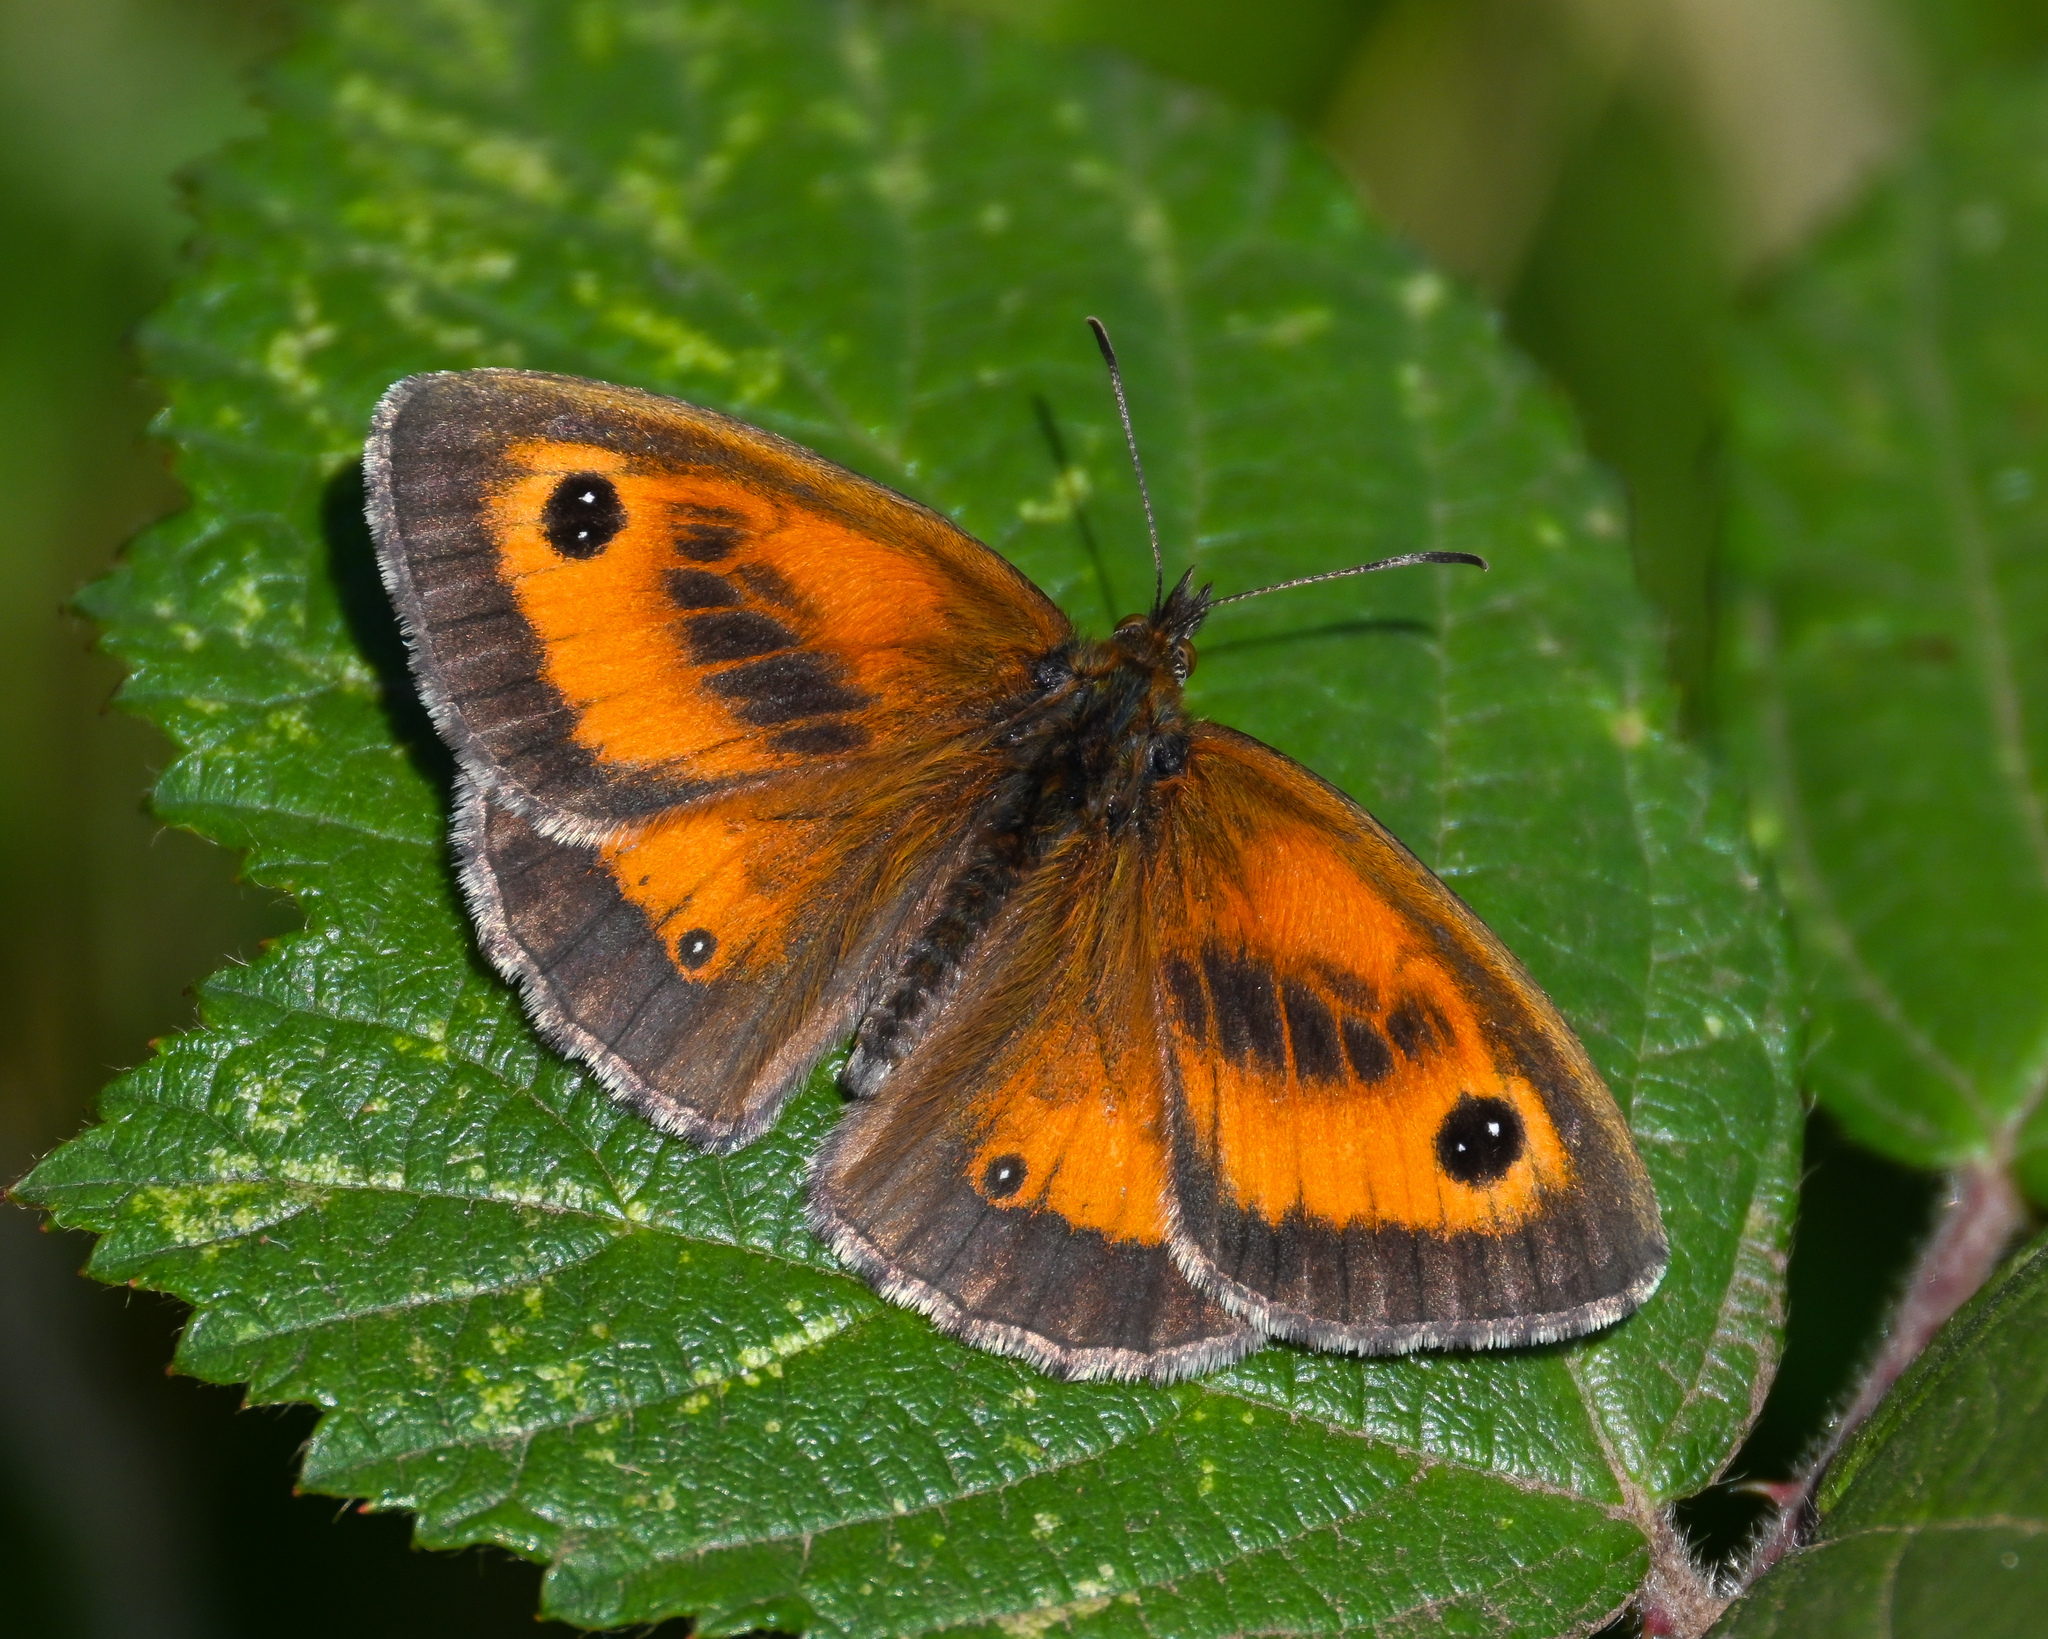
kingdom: Animalia
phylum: Arthropoda
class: Insecta
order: Lepidoptera
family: Nymphalidae
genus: Pyronia
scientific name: Pyronia tithonus
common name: Gatekeeper
